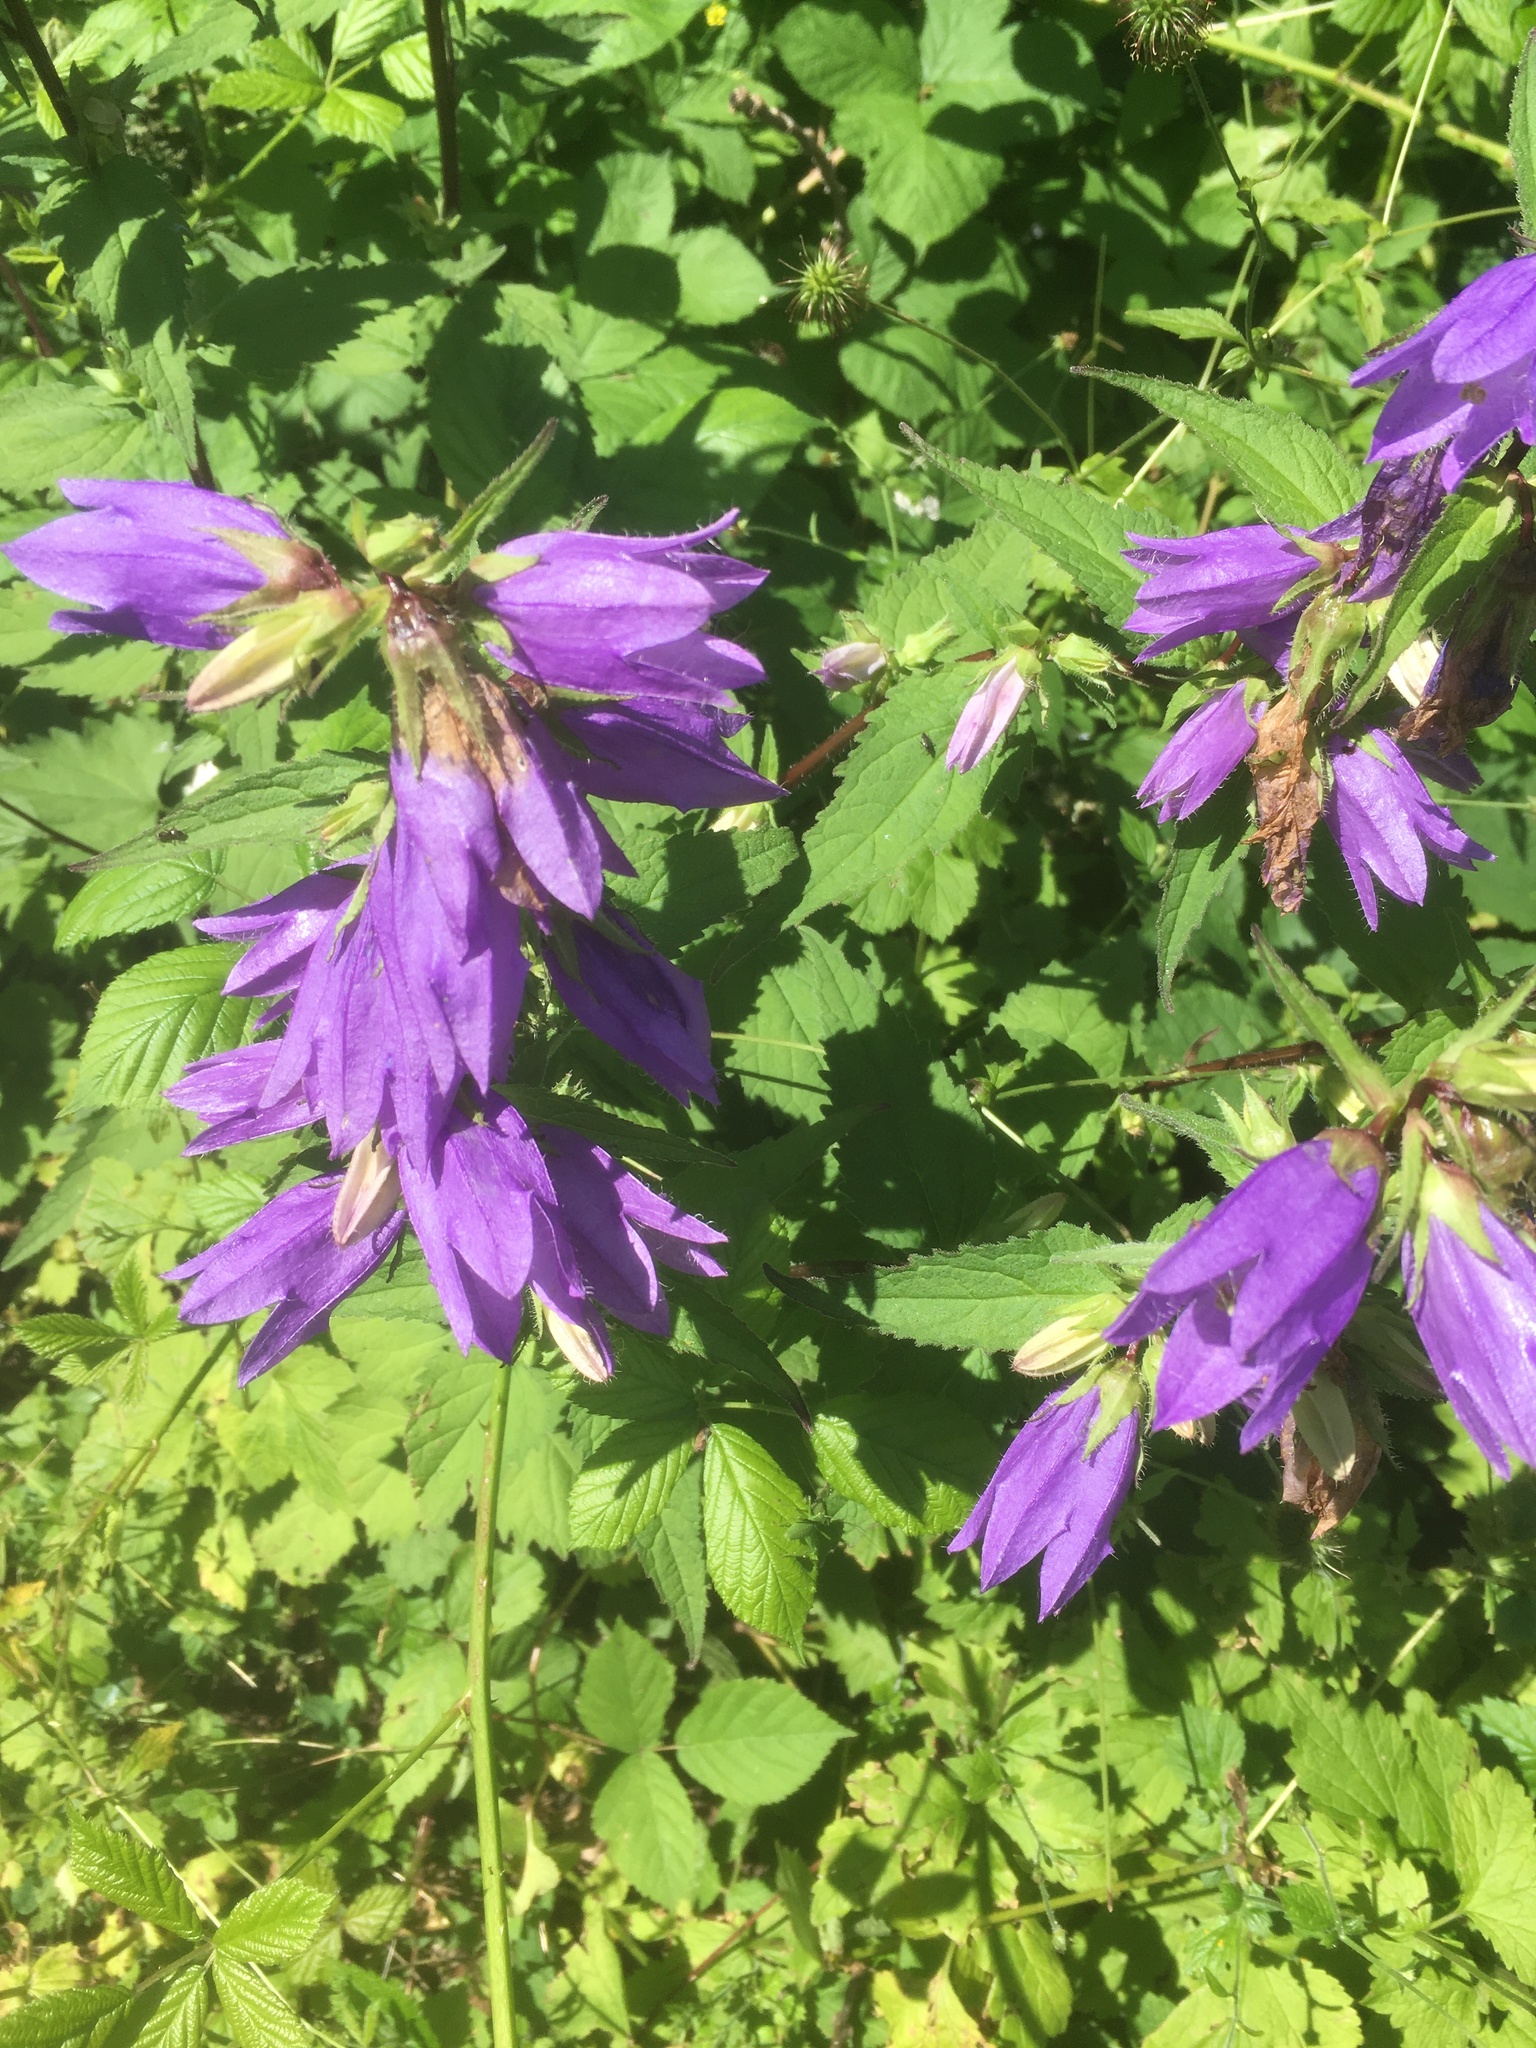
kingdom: Plantae
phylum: Tracheophyta
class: Magnoliopsida
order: Asterales
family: Campanulaceae
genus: Campanula
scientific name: Campanula trachelium
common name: Nettle-leaved bellflower
